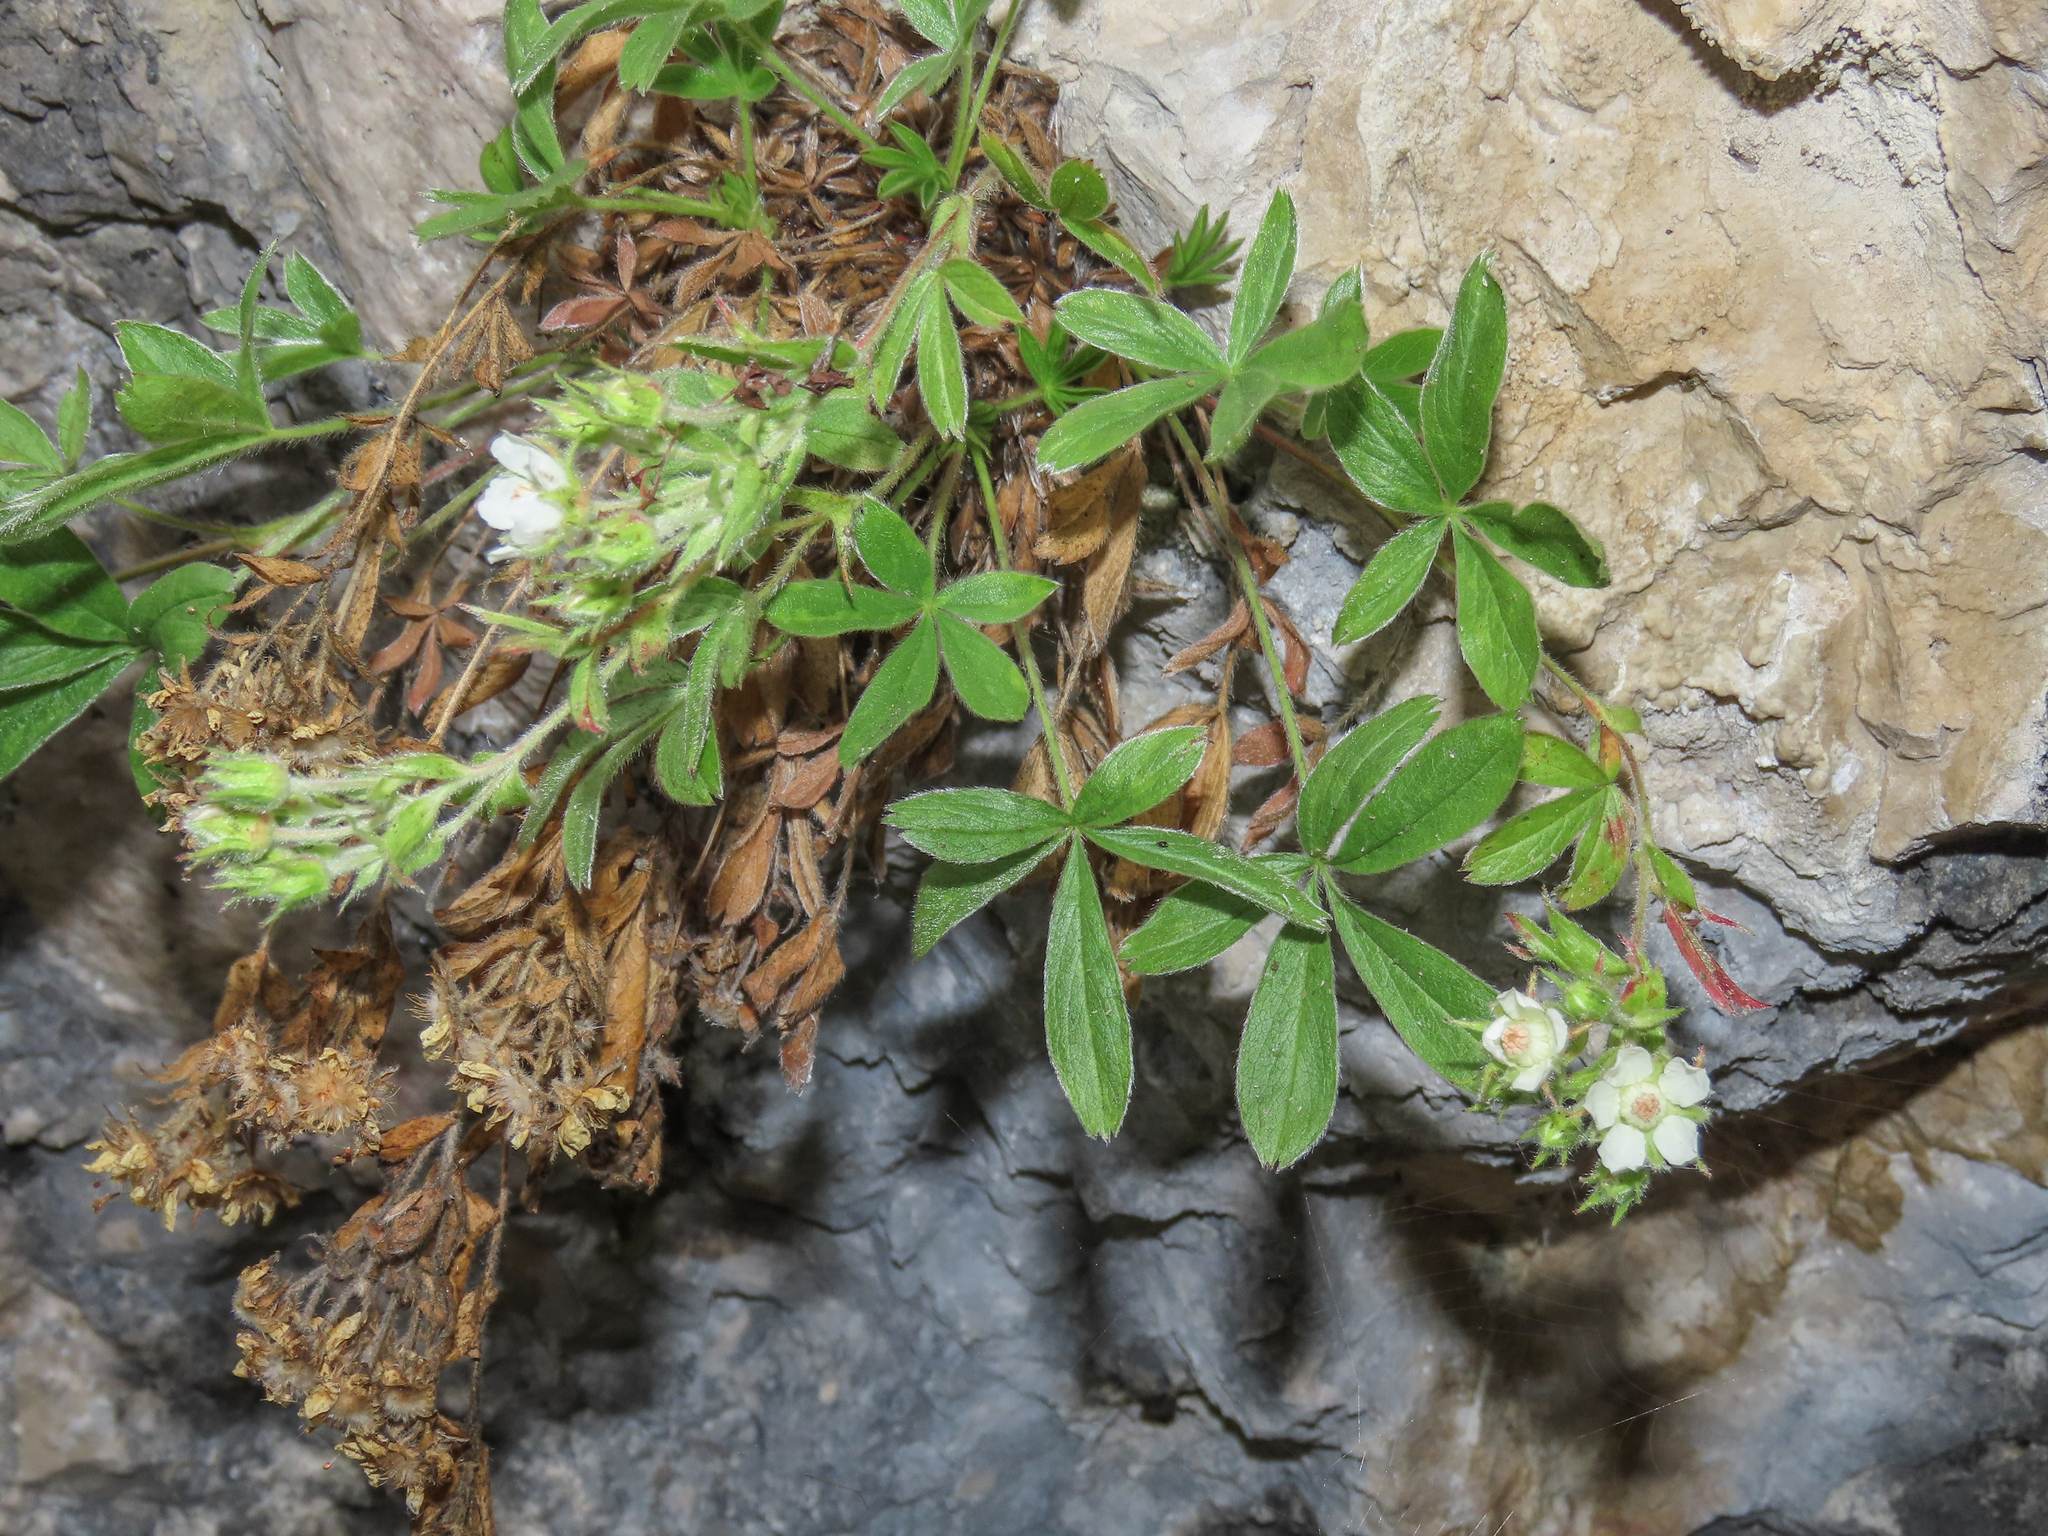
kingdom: Plantae
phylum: Tracheophyta
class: Magnoliopsida
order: Rosales
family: Rosaceae
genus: Potentilla
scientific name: Potentilla caulescens
